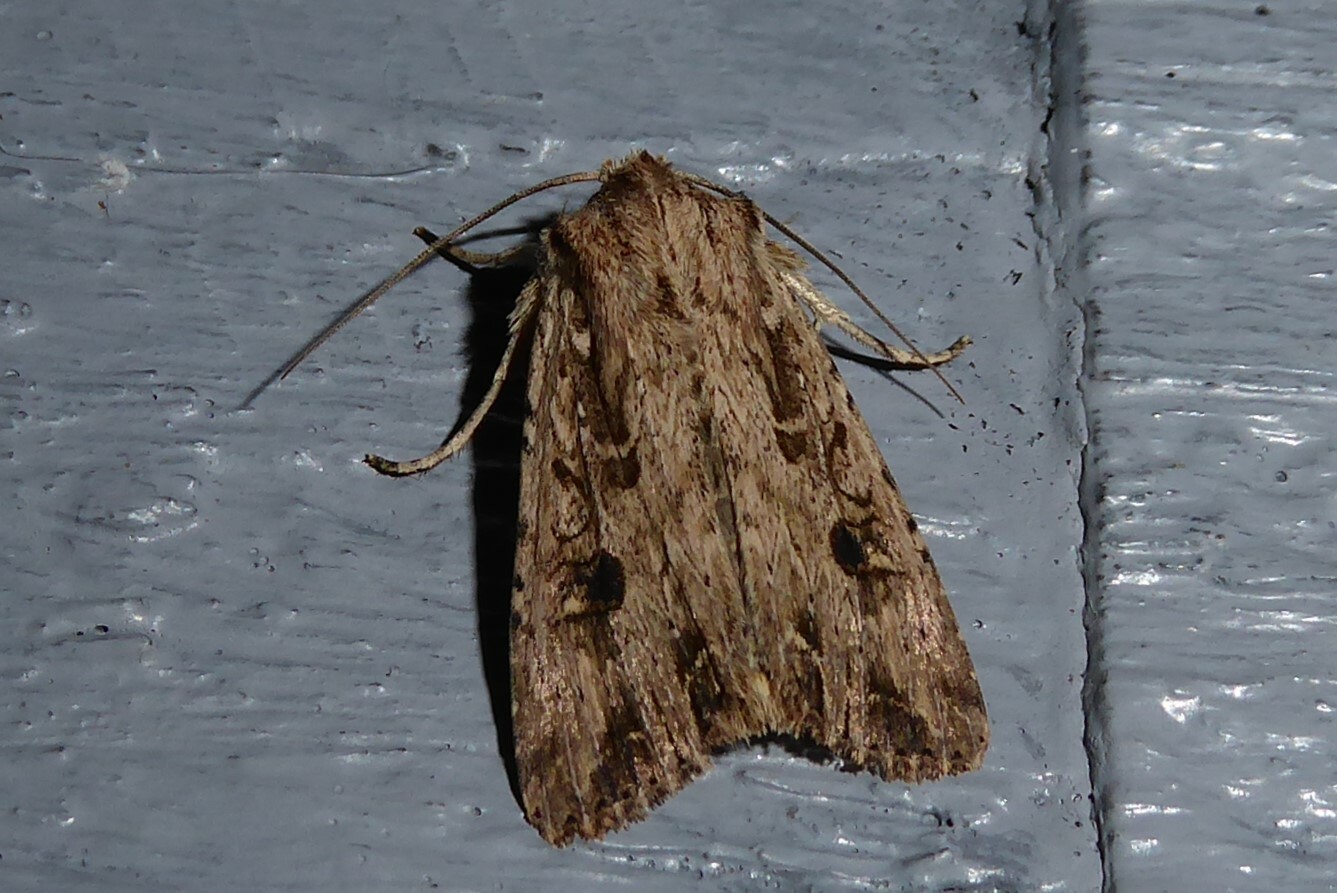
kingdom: Animalia
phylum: Arthropoda
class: Insecta
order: Lepidoptera
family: Noctuidae
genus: Ichneutica
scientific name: Ichneutica lignana
